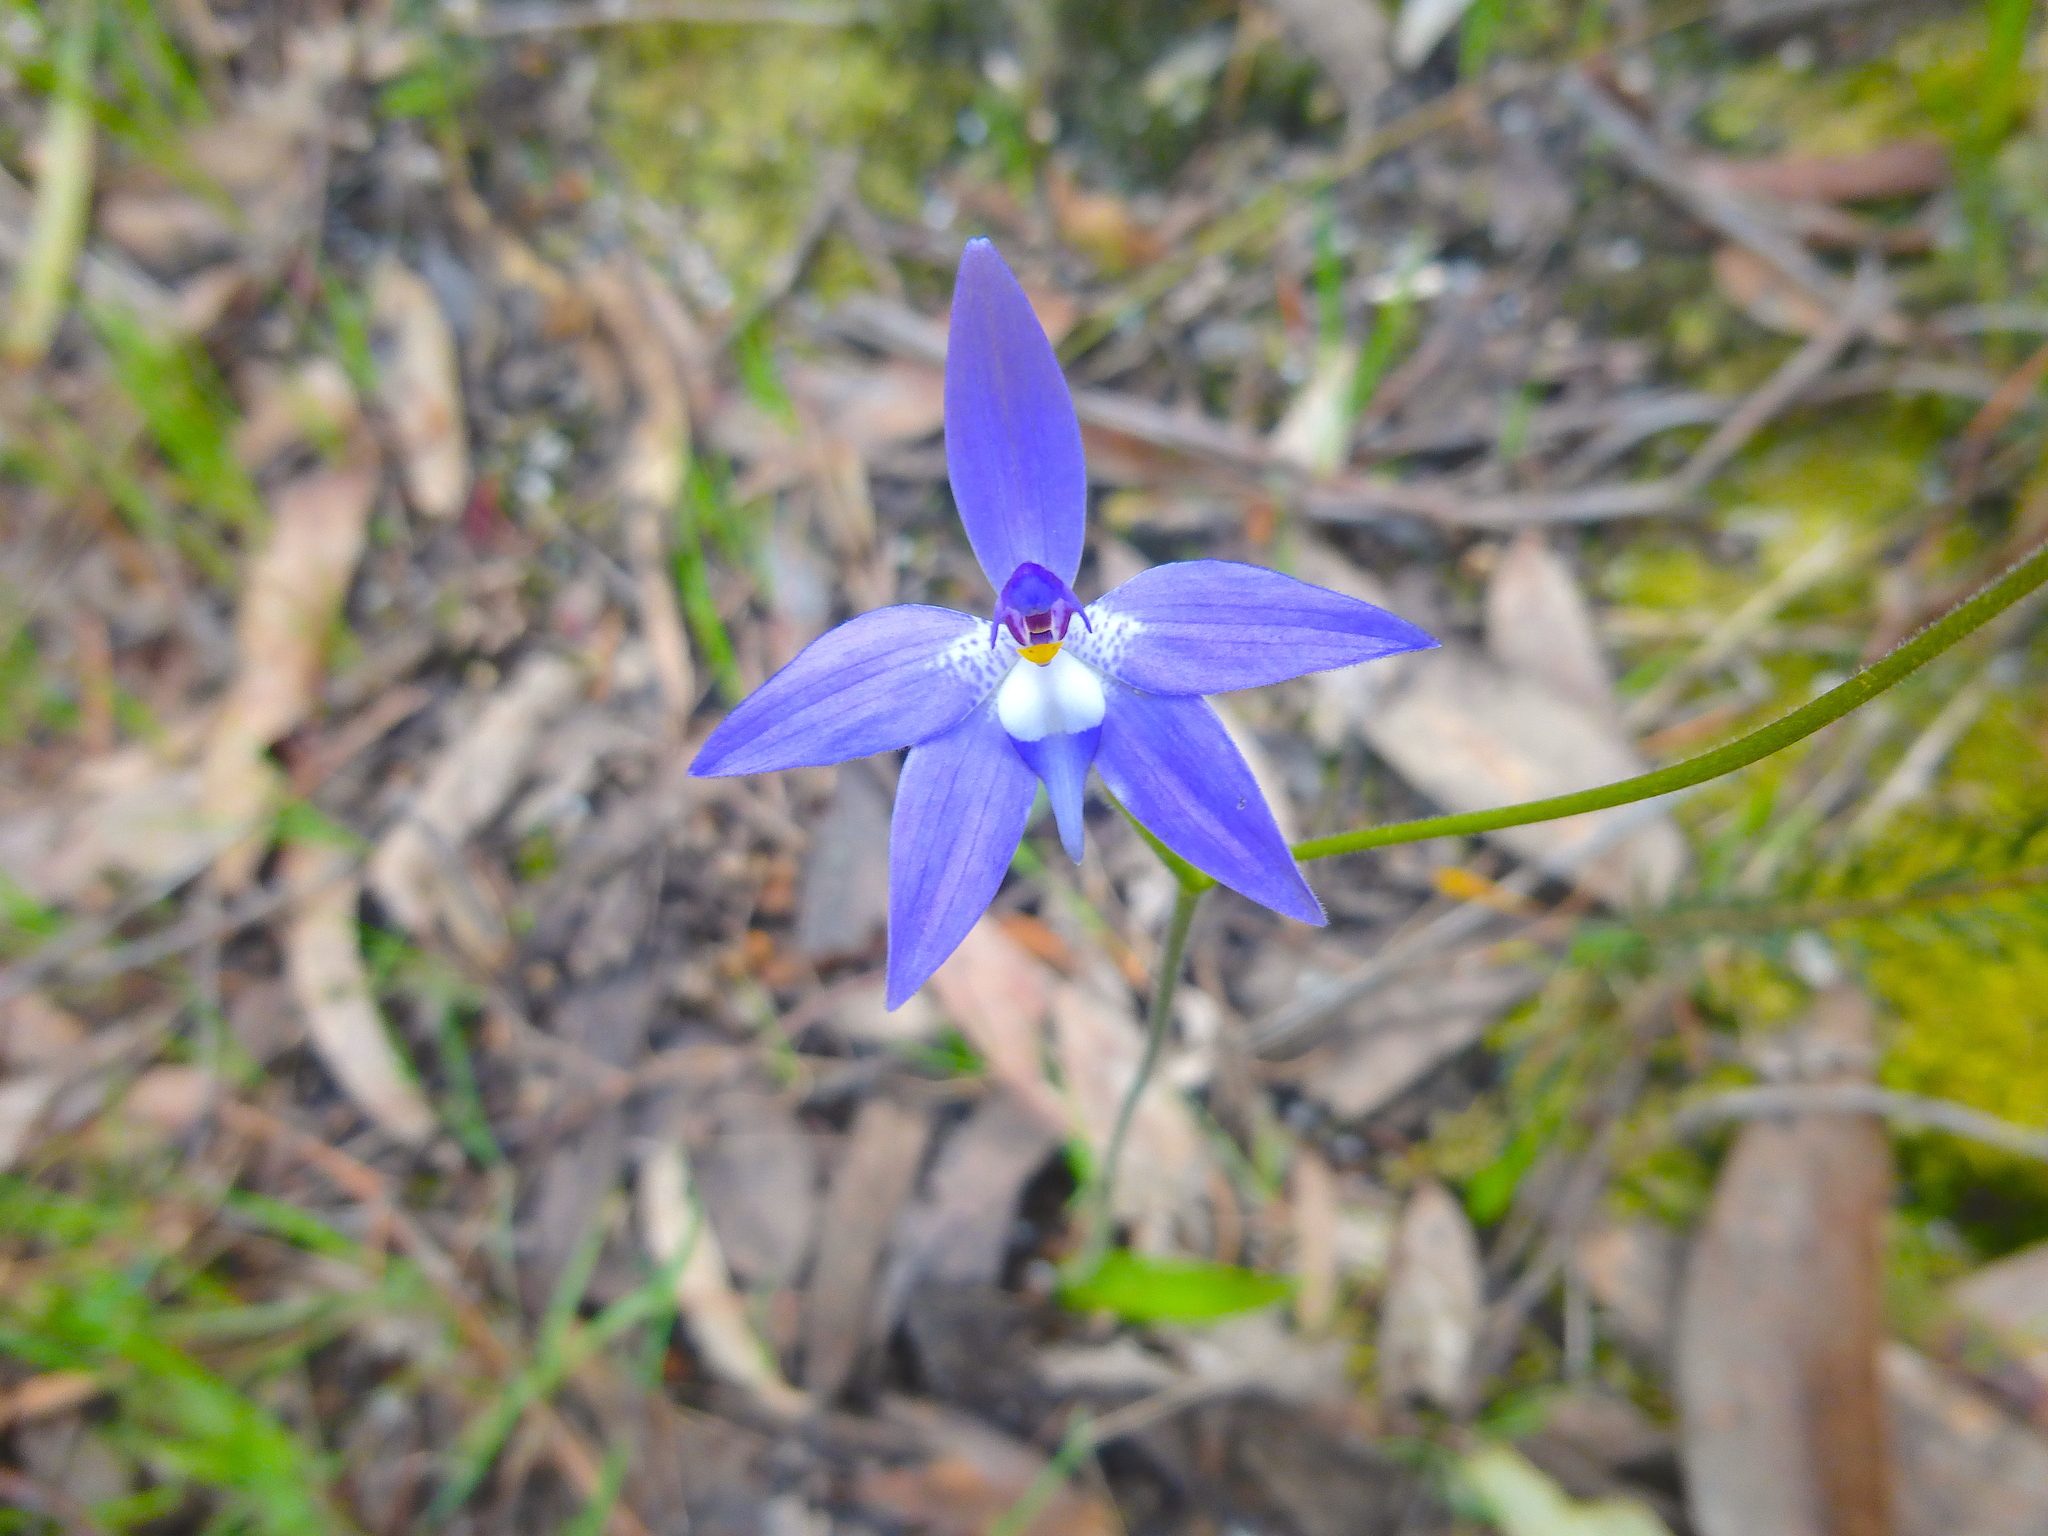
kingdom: Plantae
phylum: Tracheophyta
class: Liliopsida
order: Asparagales
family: Orchidaceae
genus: Caladenia
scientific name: Caladenia major
